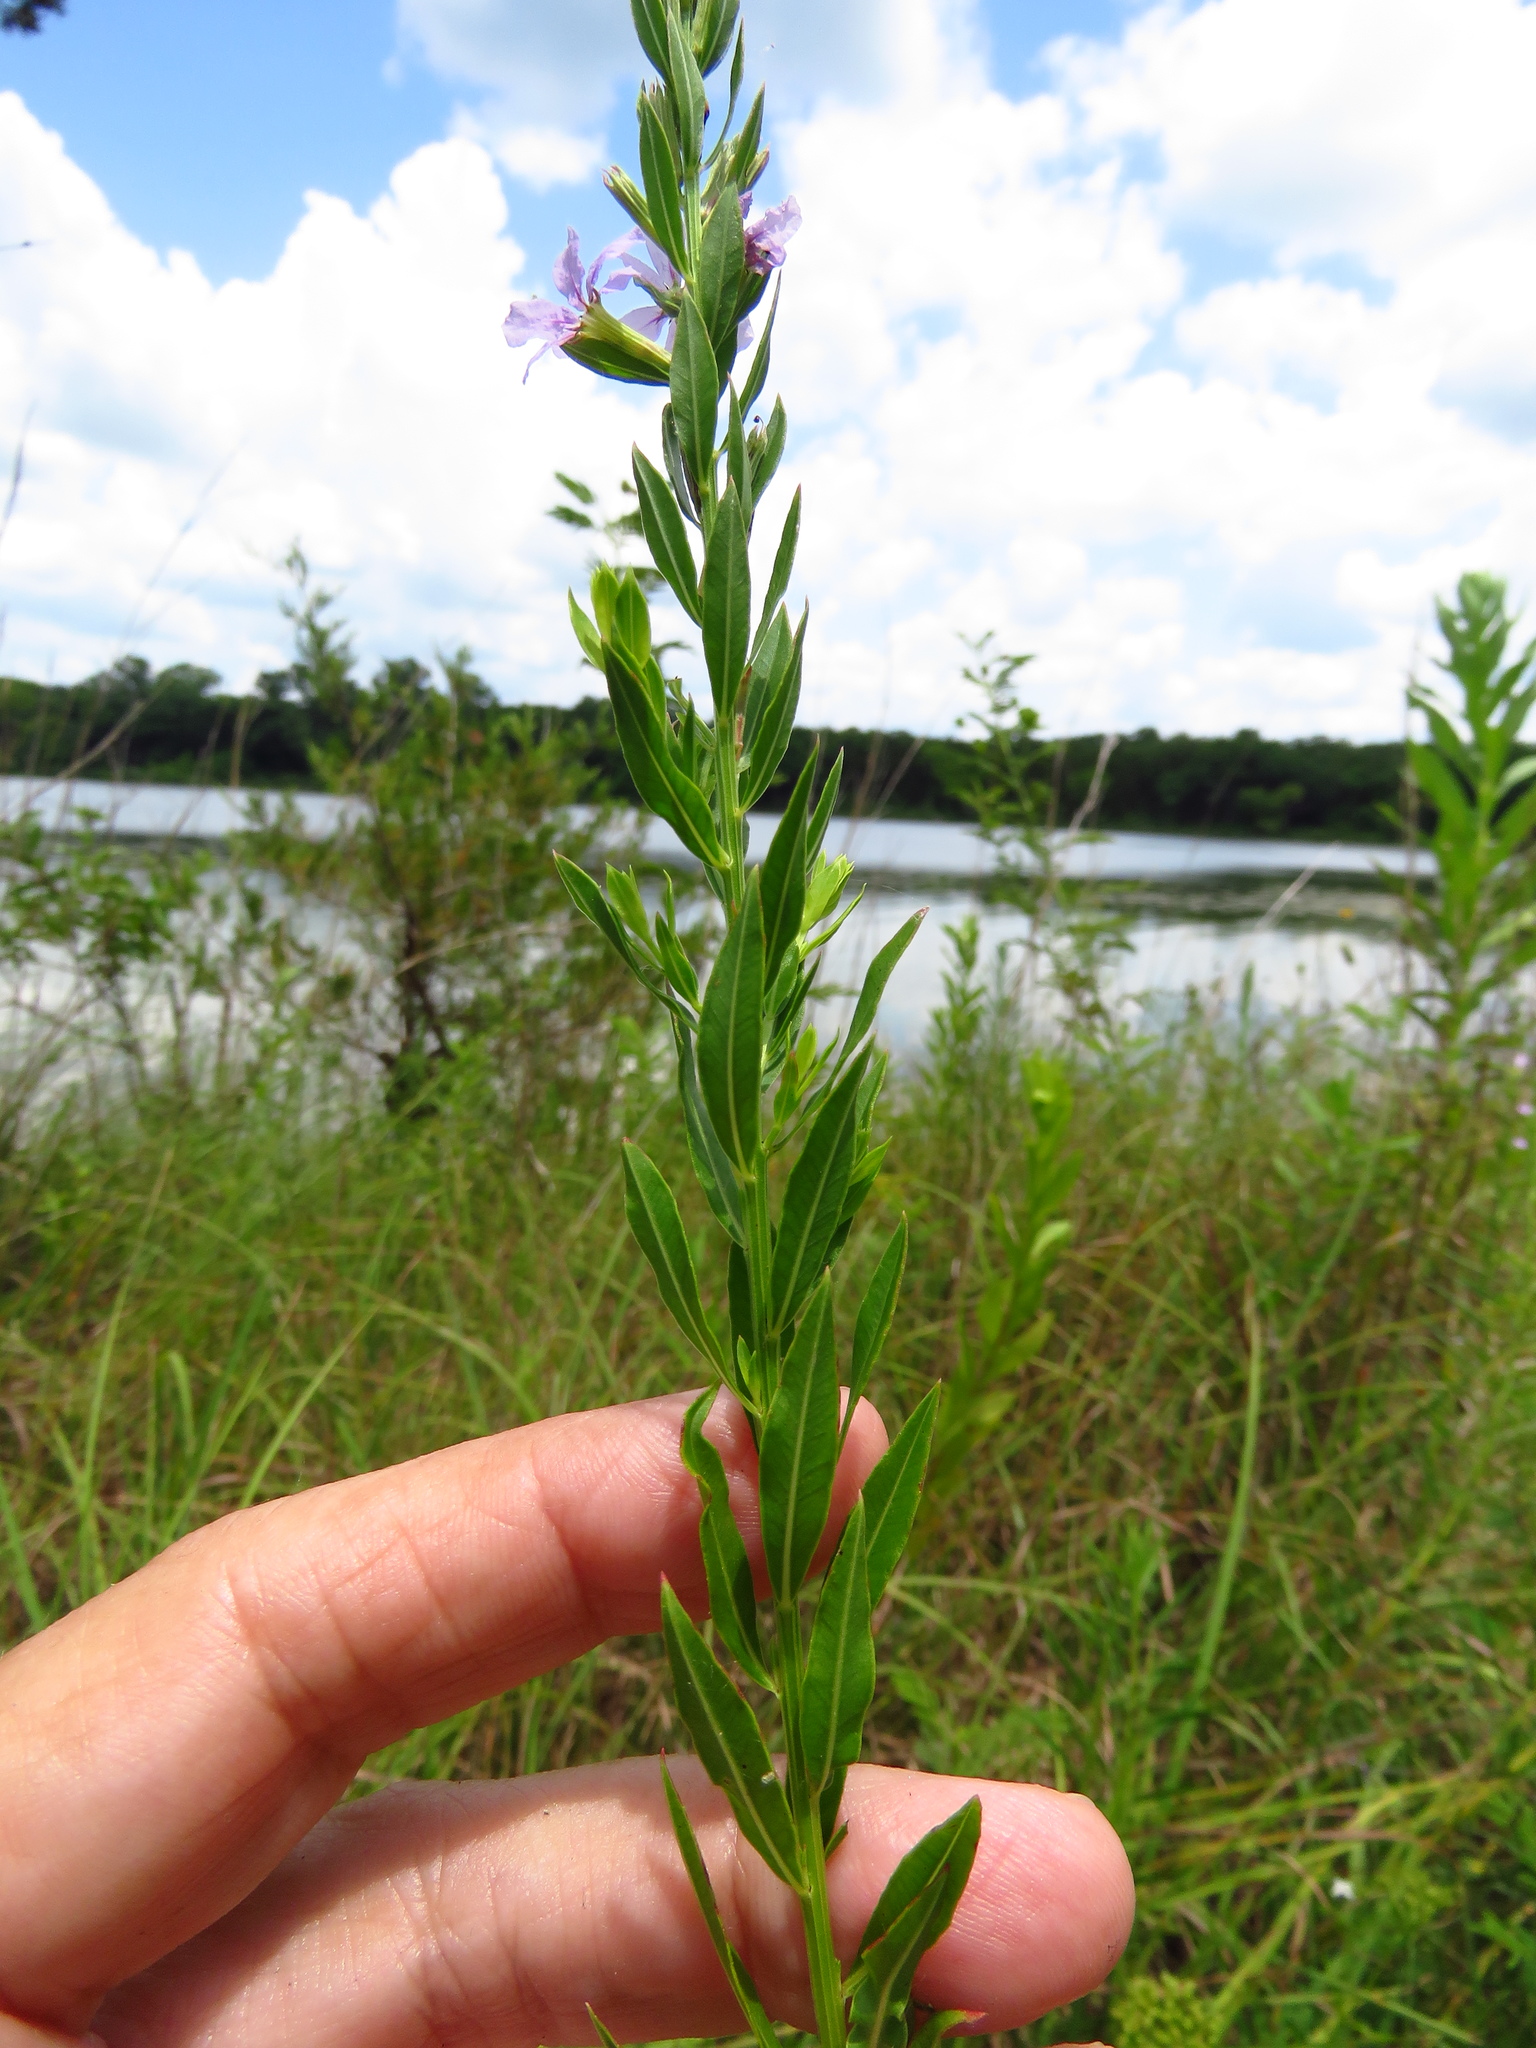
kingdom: Plantae
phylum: Tracheophyta
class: Magnoliopsida
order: Myrtales
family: Lythraceae
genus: Lythrum
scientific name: Lythrum alatum
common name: Winged loosestrife
